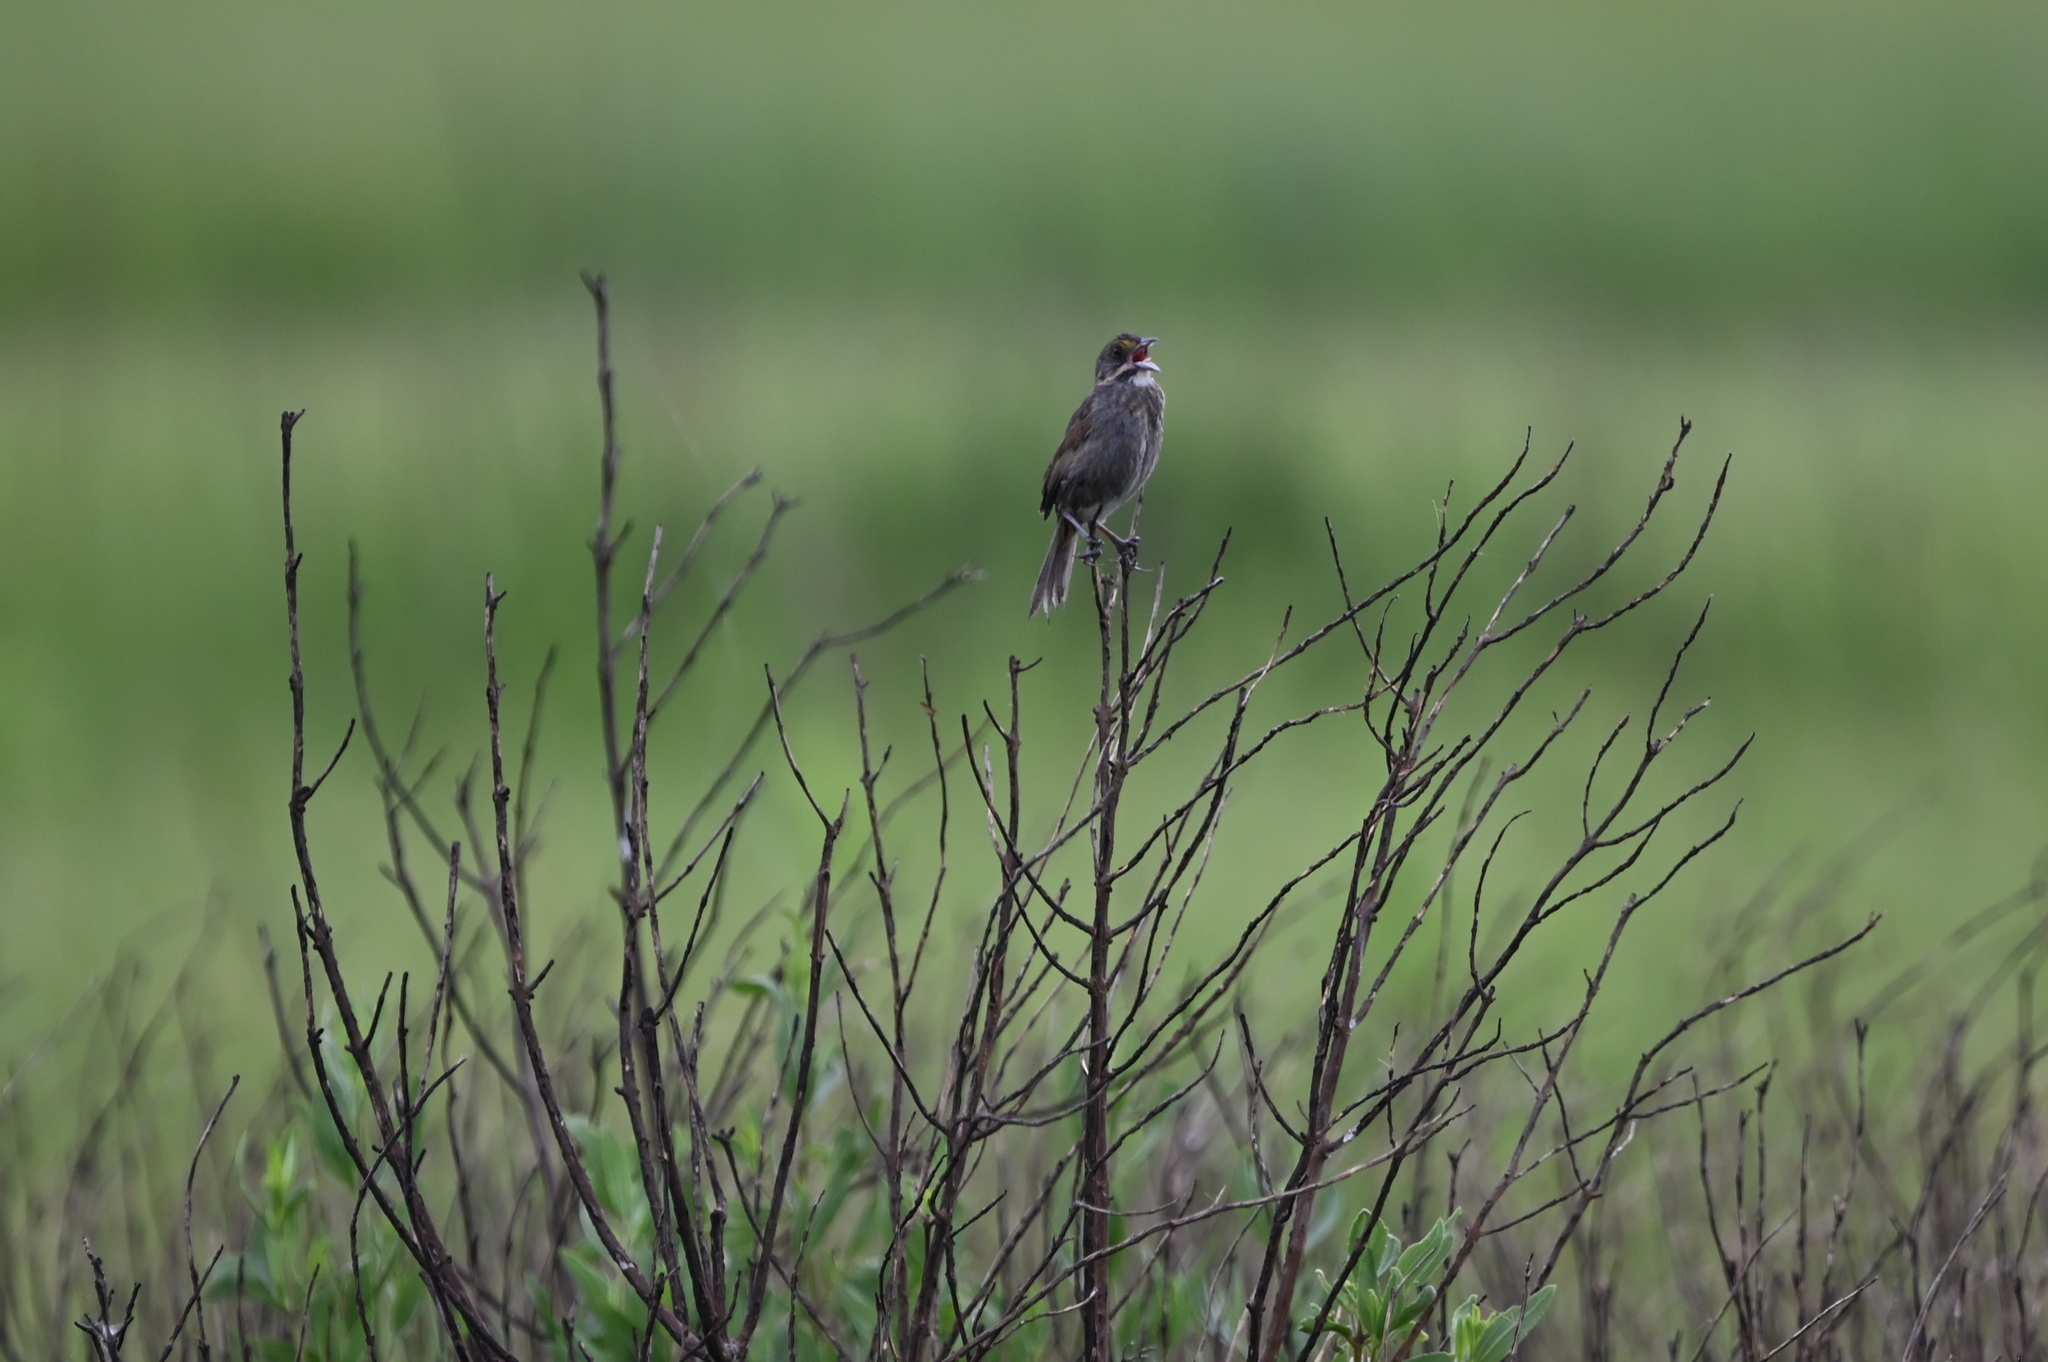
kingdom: Animalia
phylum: Chordata
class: Aves
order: Passeriformes
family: Passerellidae
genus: Ammospiza
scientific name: Ammospiza maritima
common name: Seaside sparrow
